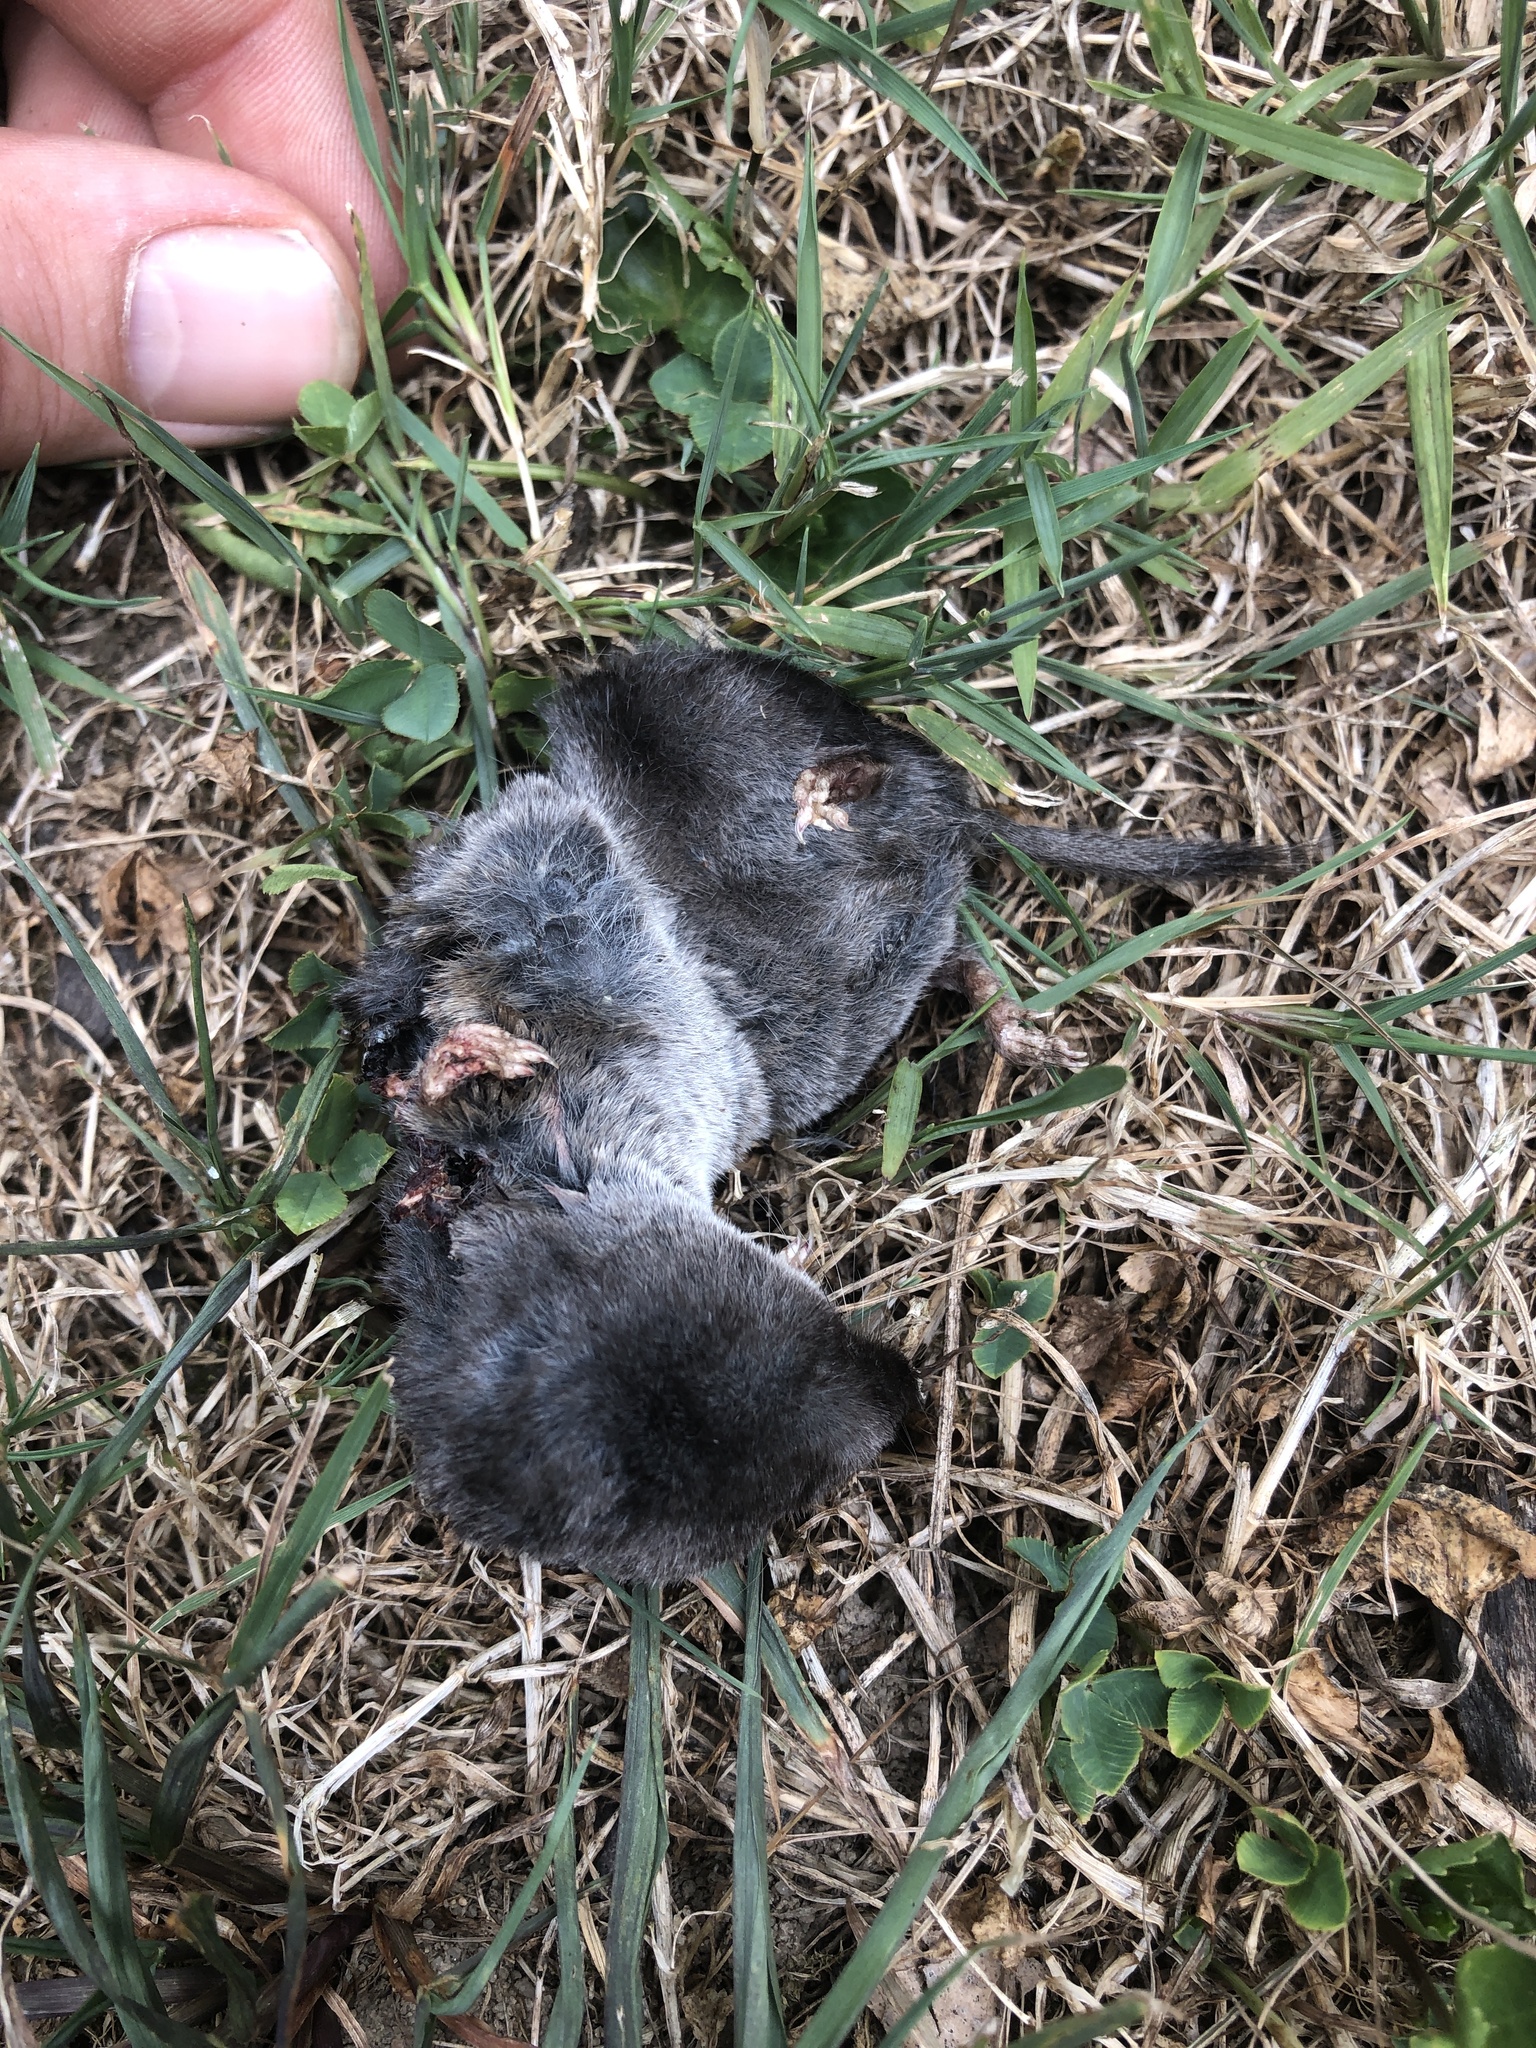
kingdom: Animalia
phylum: Chordata
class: Mammalia
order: Soricomorpha
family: Soricidae
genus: Blarina
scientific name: Blarina brevicauda
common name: Northern short-tailed shrew
